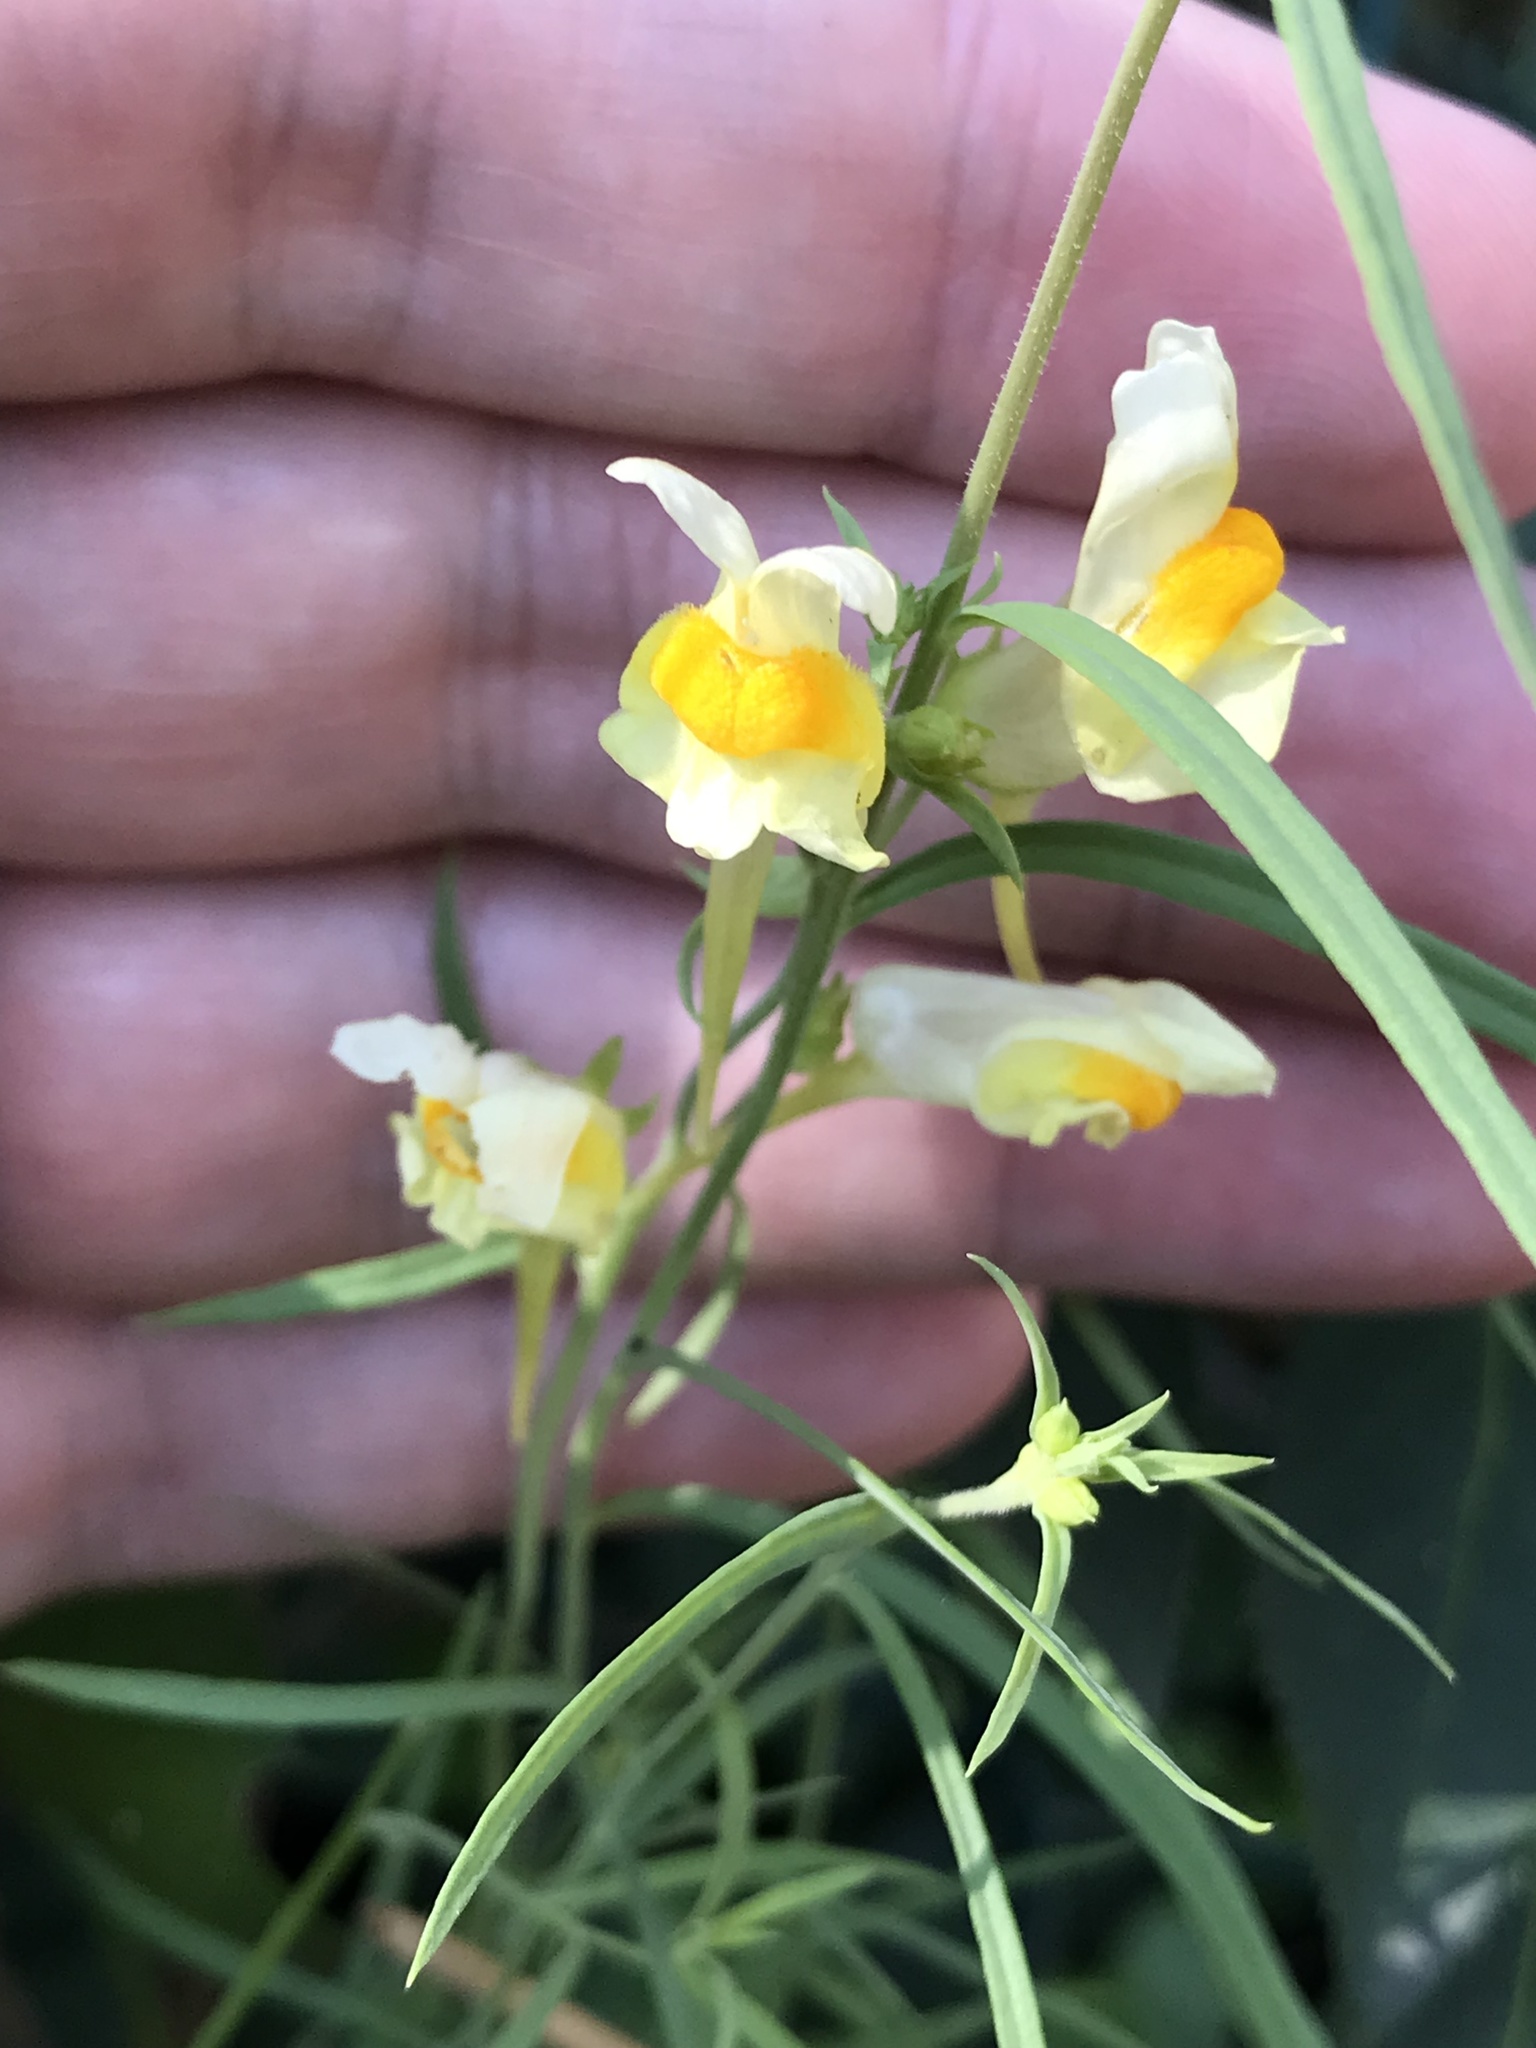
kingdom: Plantae
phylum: Tracheophyta
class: Magnoliopsida
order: Lamiales
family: Plantaginaceae
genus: Linaria
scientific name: Linaria vulgaris
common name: Butter and eggs
